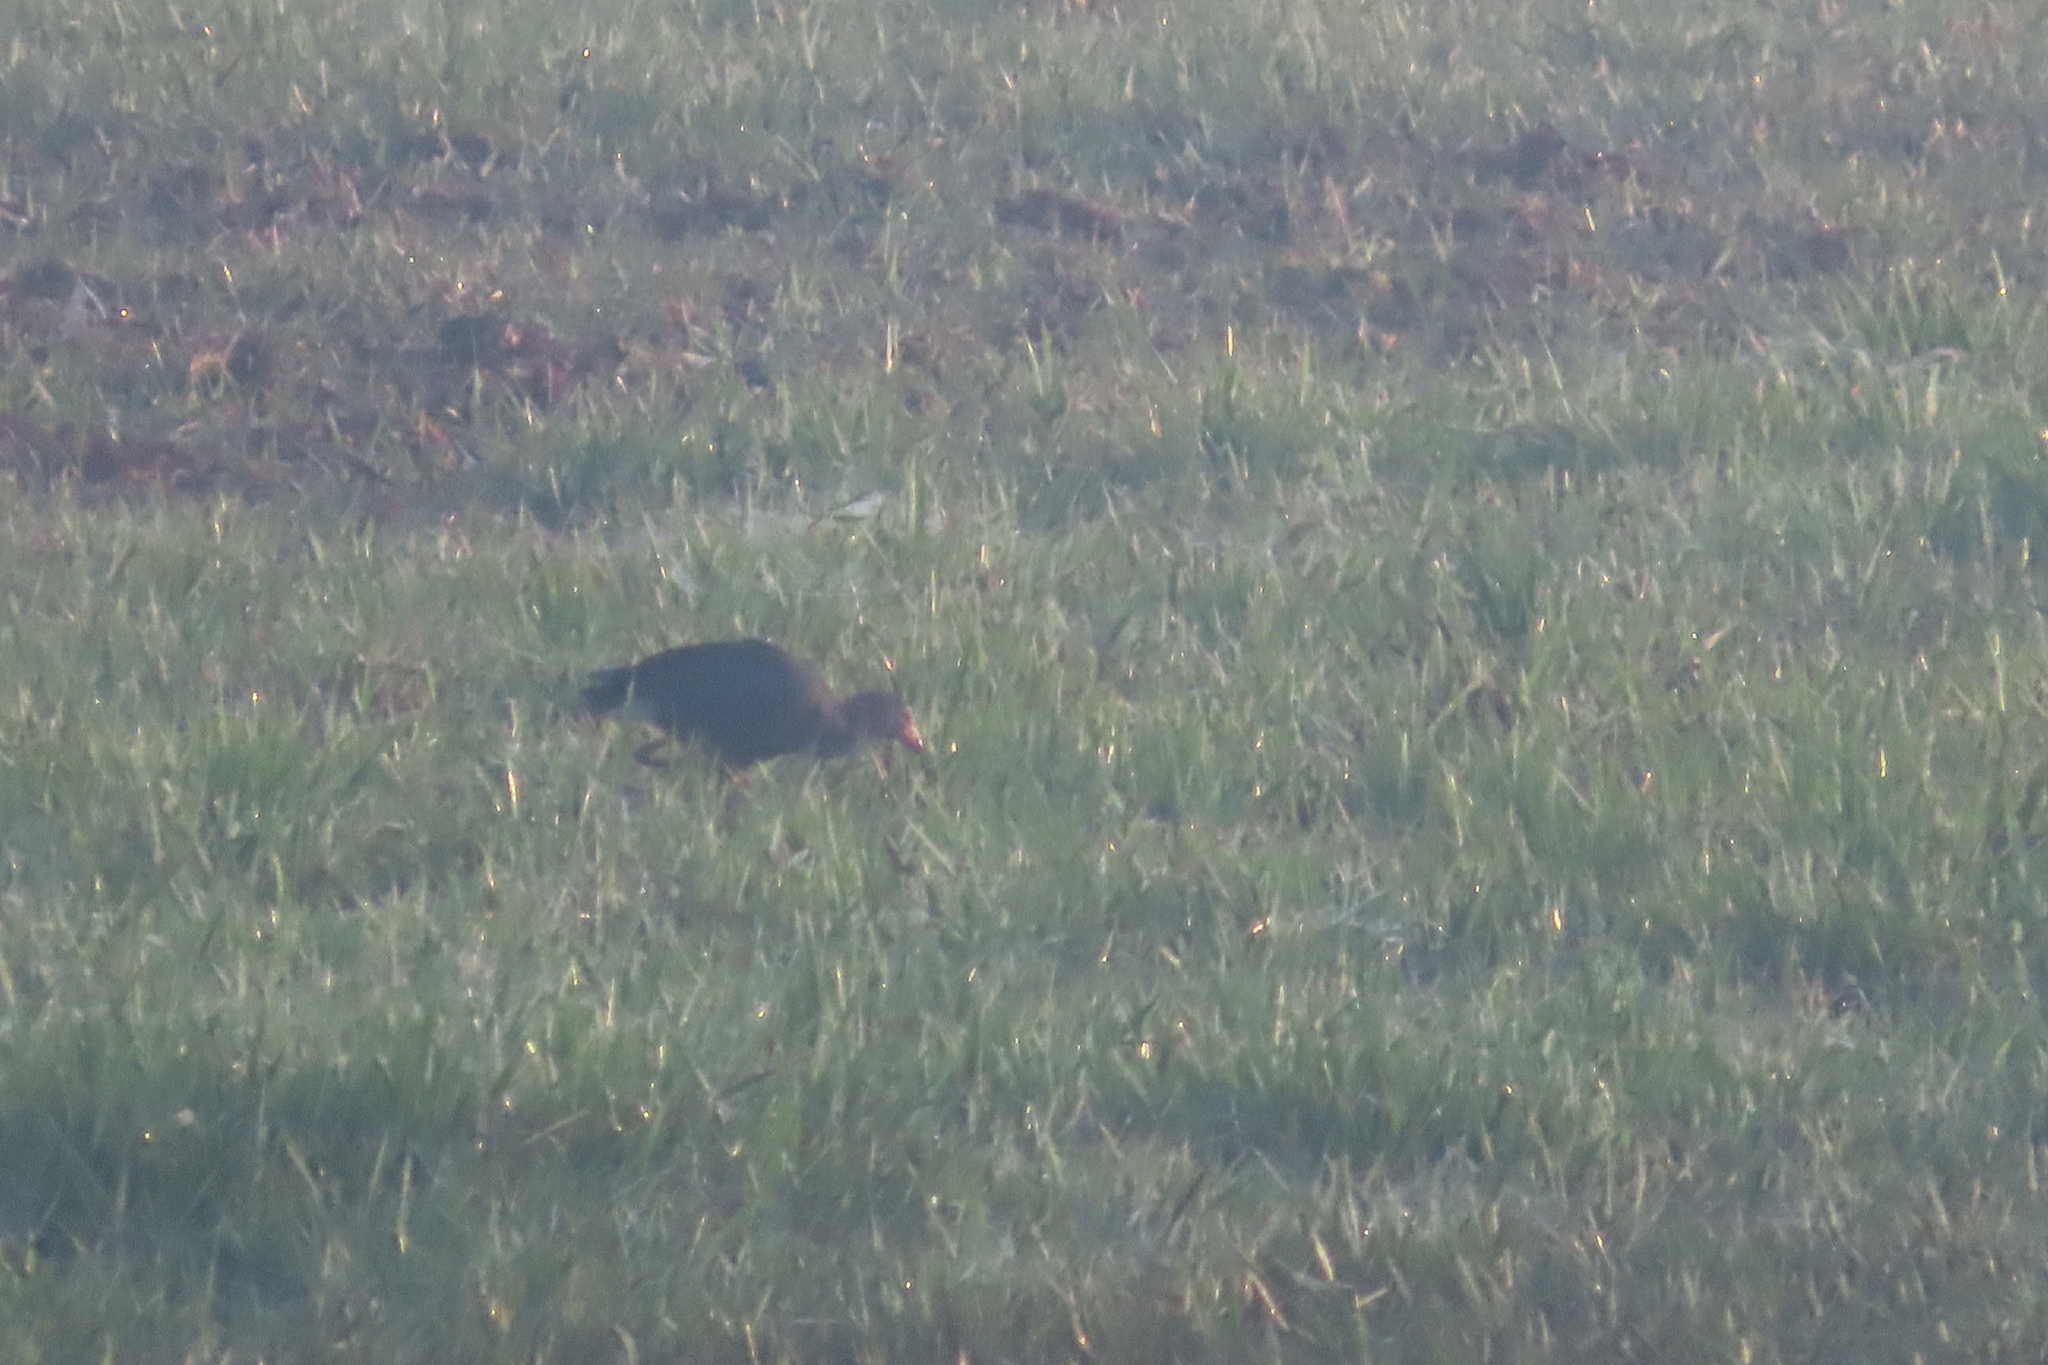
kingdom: Animalia
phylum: Chordata
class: Aves
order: Gruiformes
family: Rallidae
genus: Porphyrio
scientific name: Porphyrio porphyrio
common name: Purple swamphen
